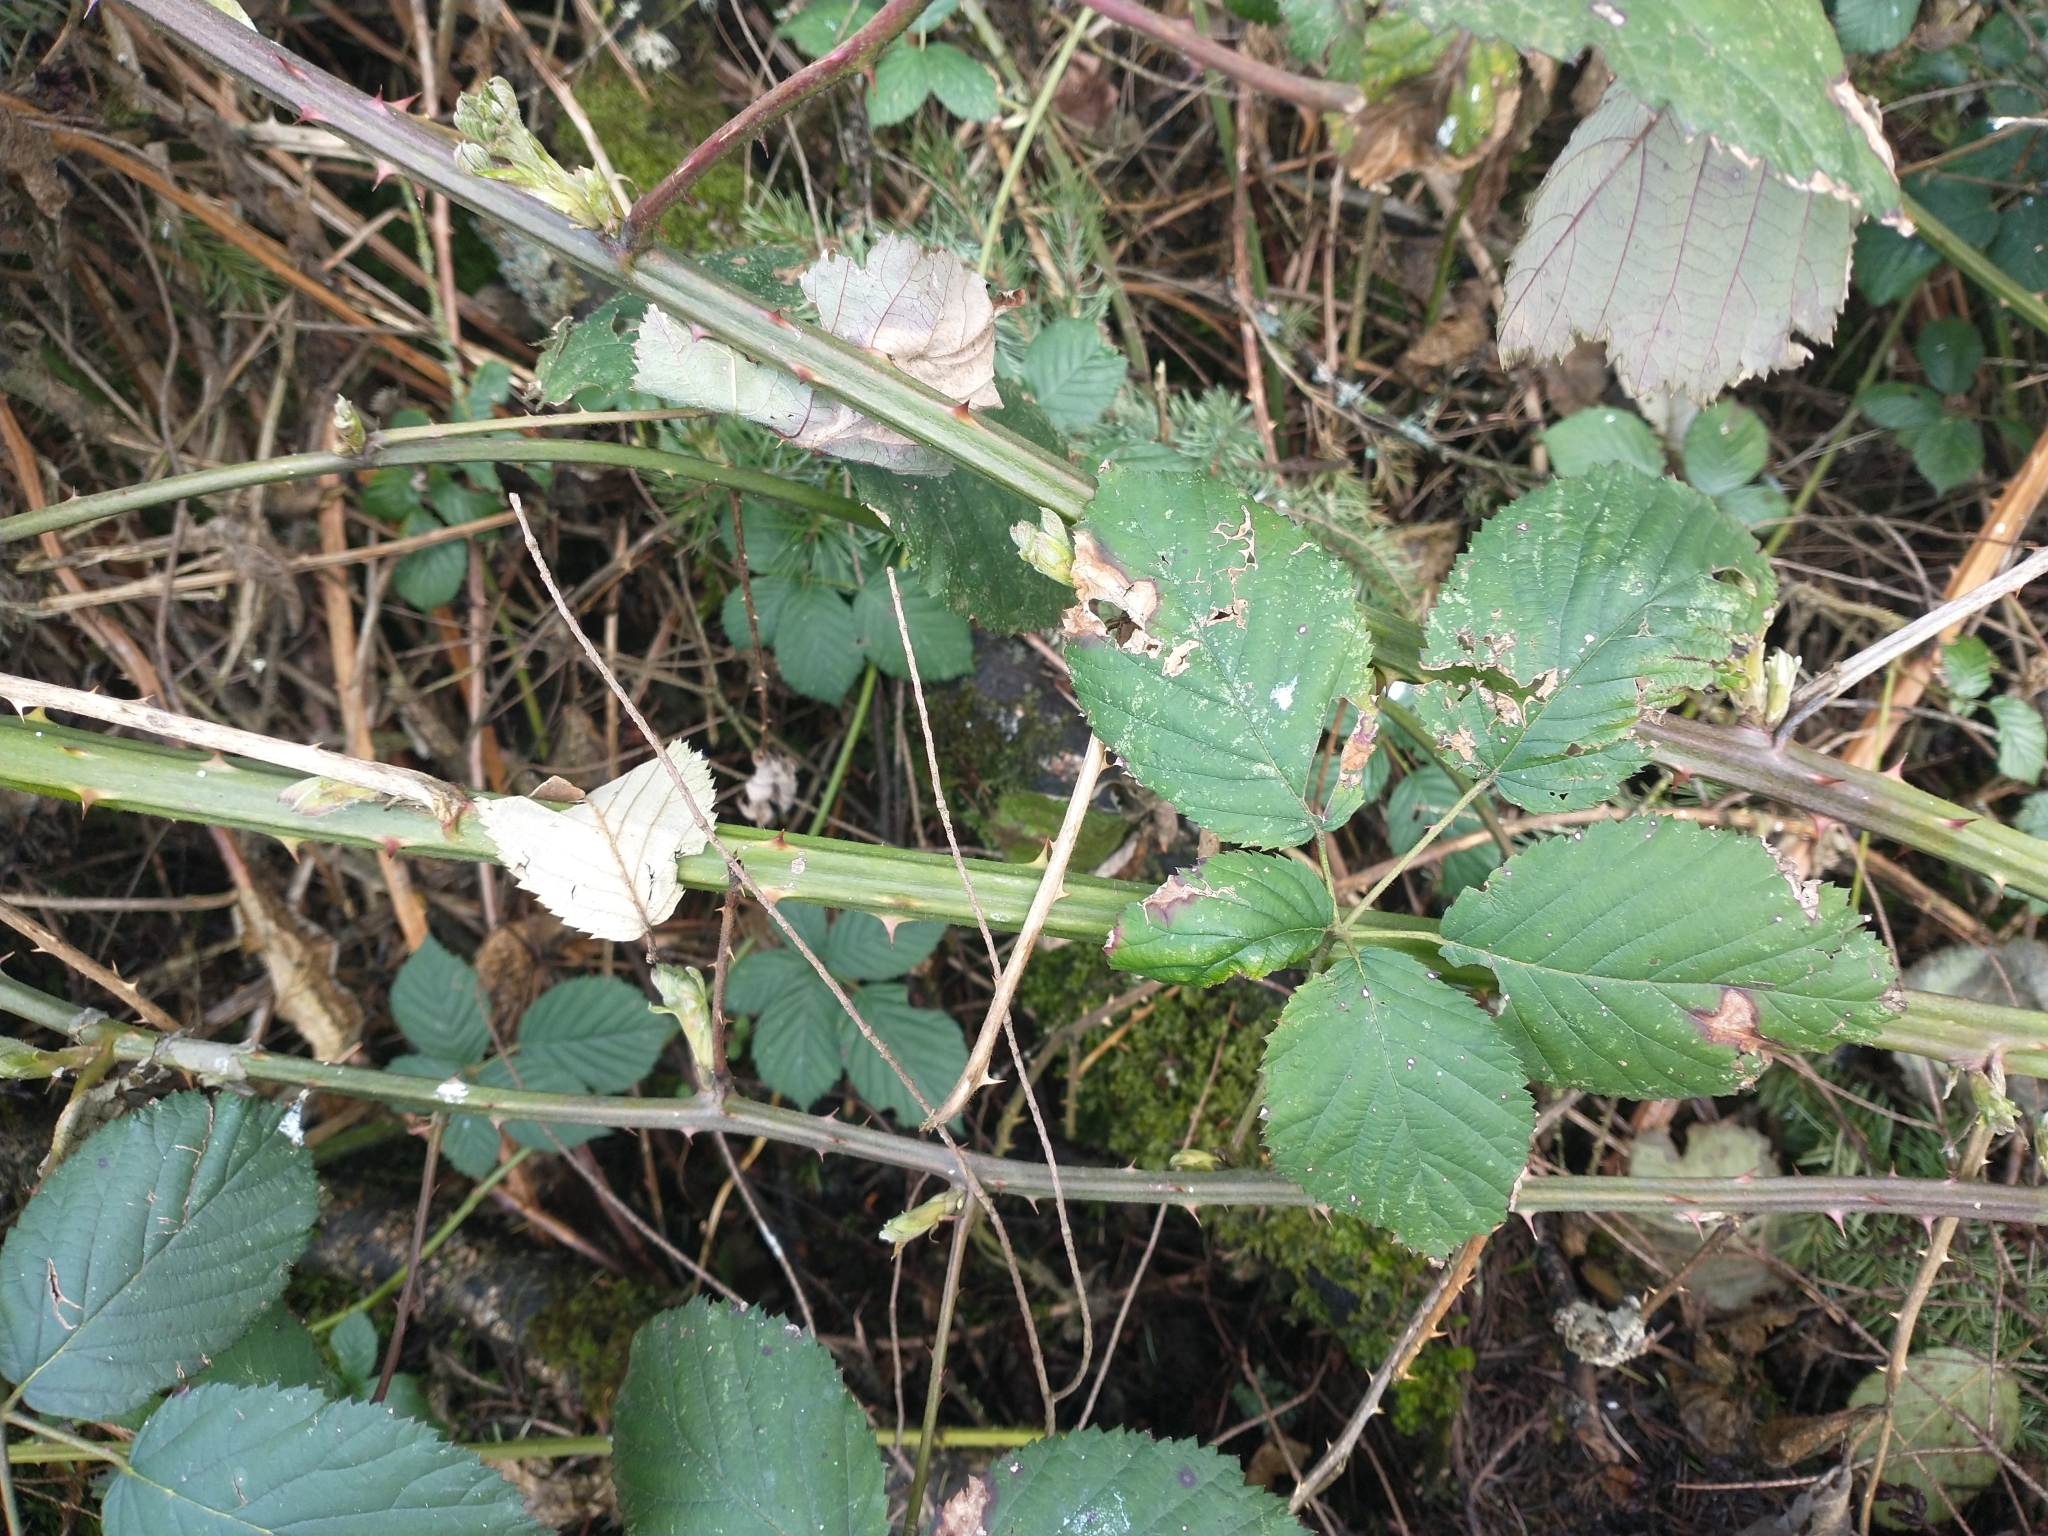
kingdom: Plantae
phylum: Tracheophyta
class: Magnoliopsida
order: Rosales
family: Rosaceae
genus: Rubus
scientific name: Rubus armeniacus
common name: Himalayan blackberry
